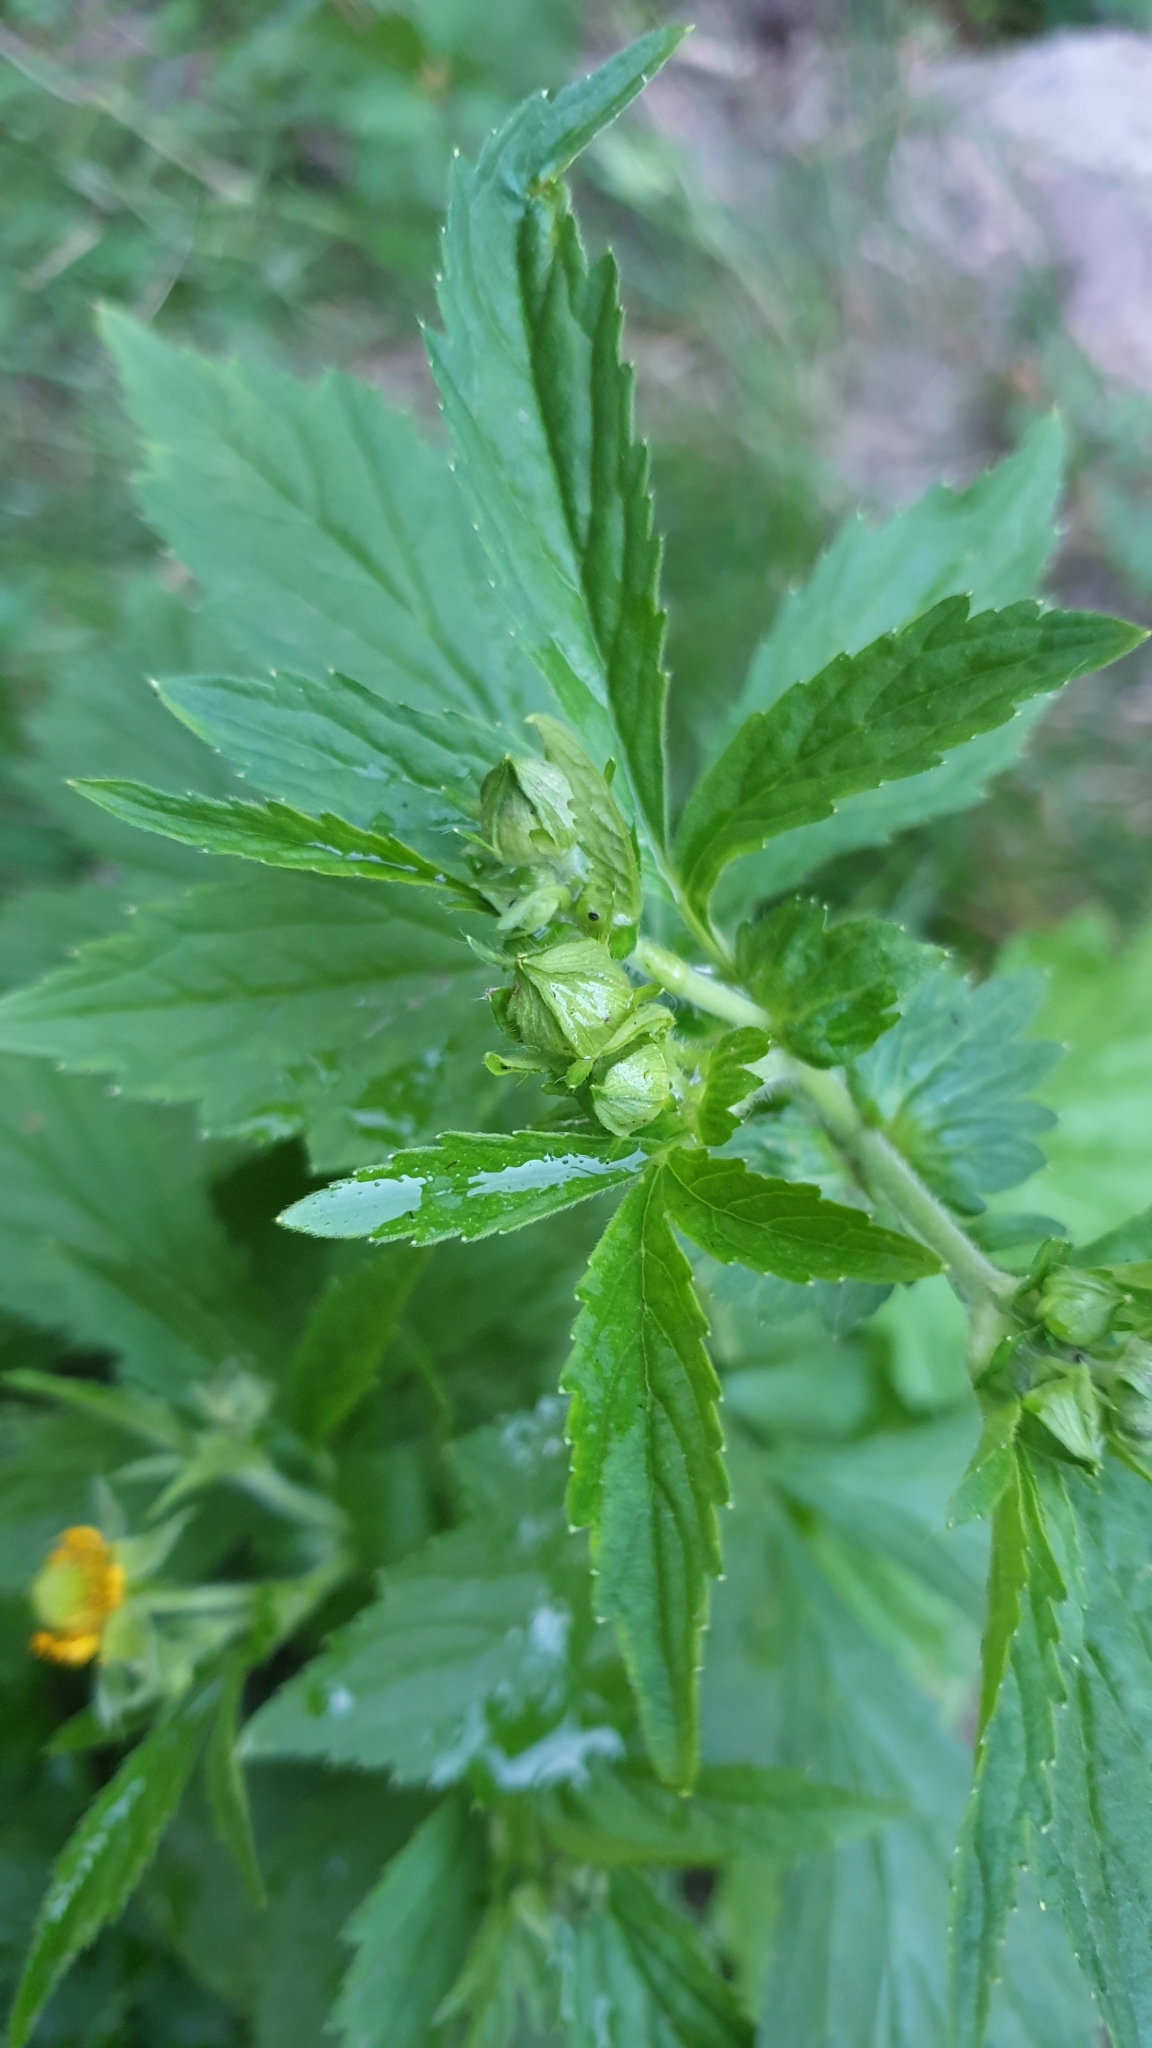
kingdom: Plantae
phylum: Tracheophyta
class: Magnoliopsida
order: Rosales
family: Rosaceae
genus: Geum
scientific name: Geum aleppicum
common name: Yellow avens
